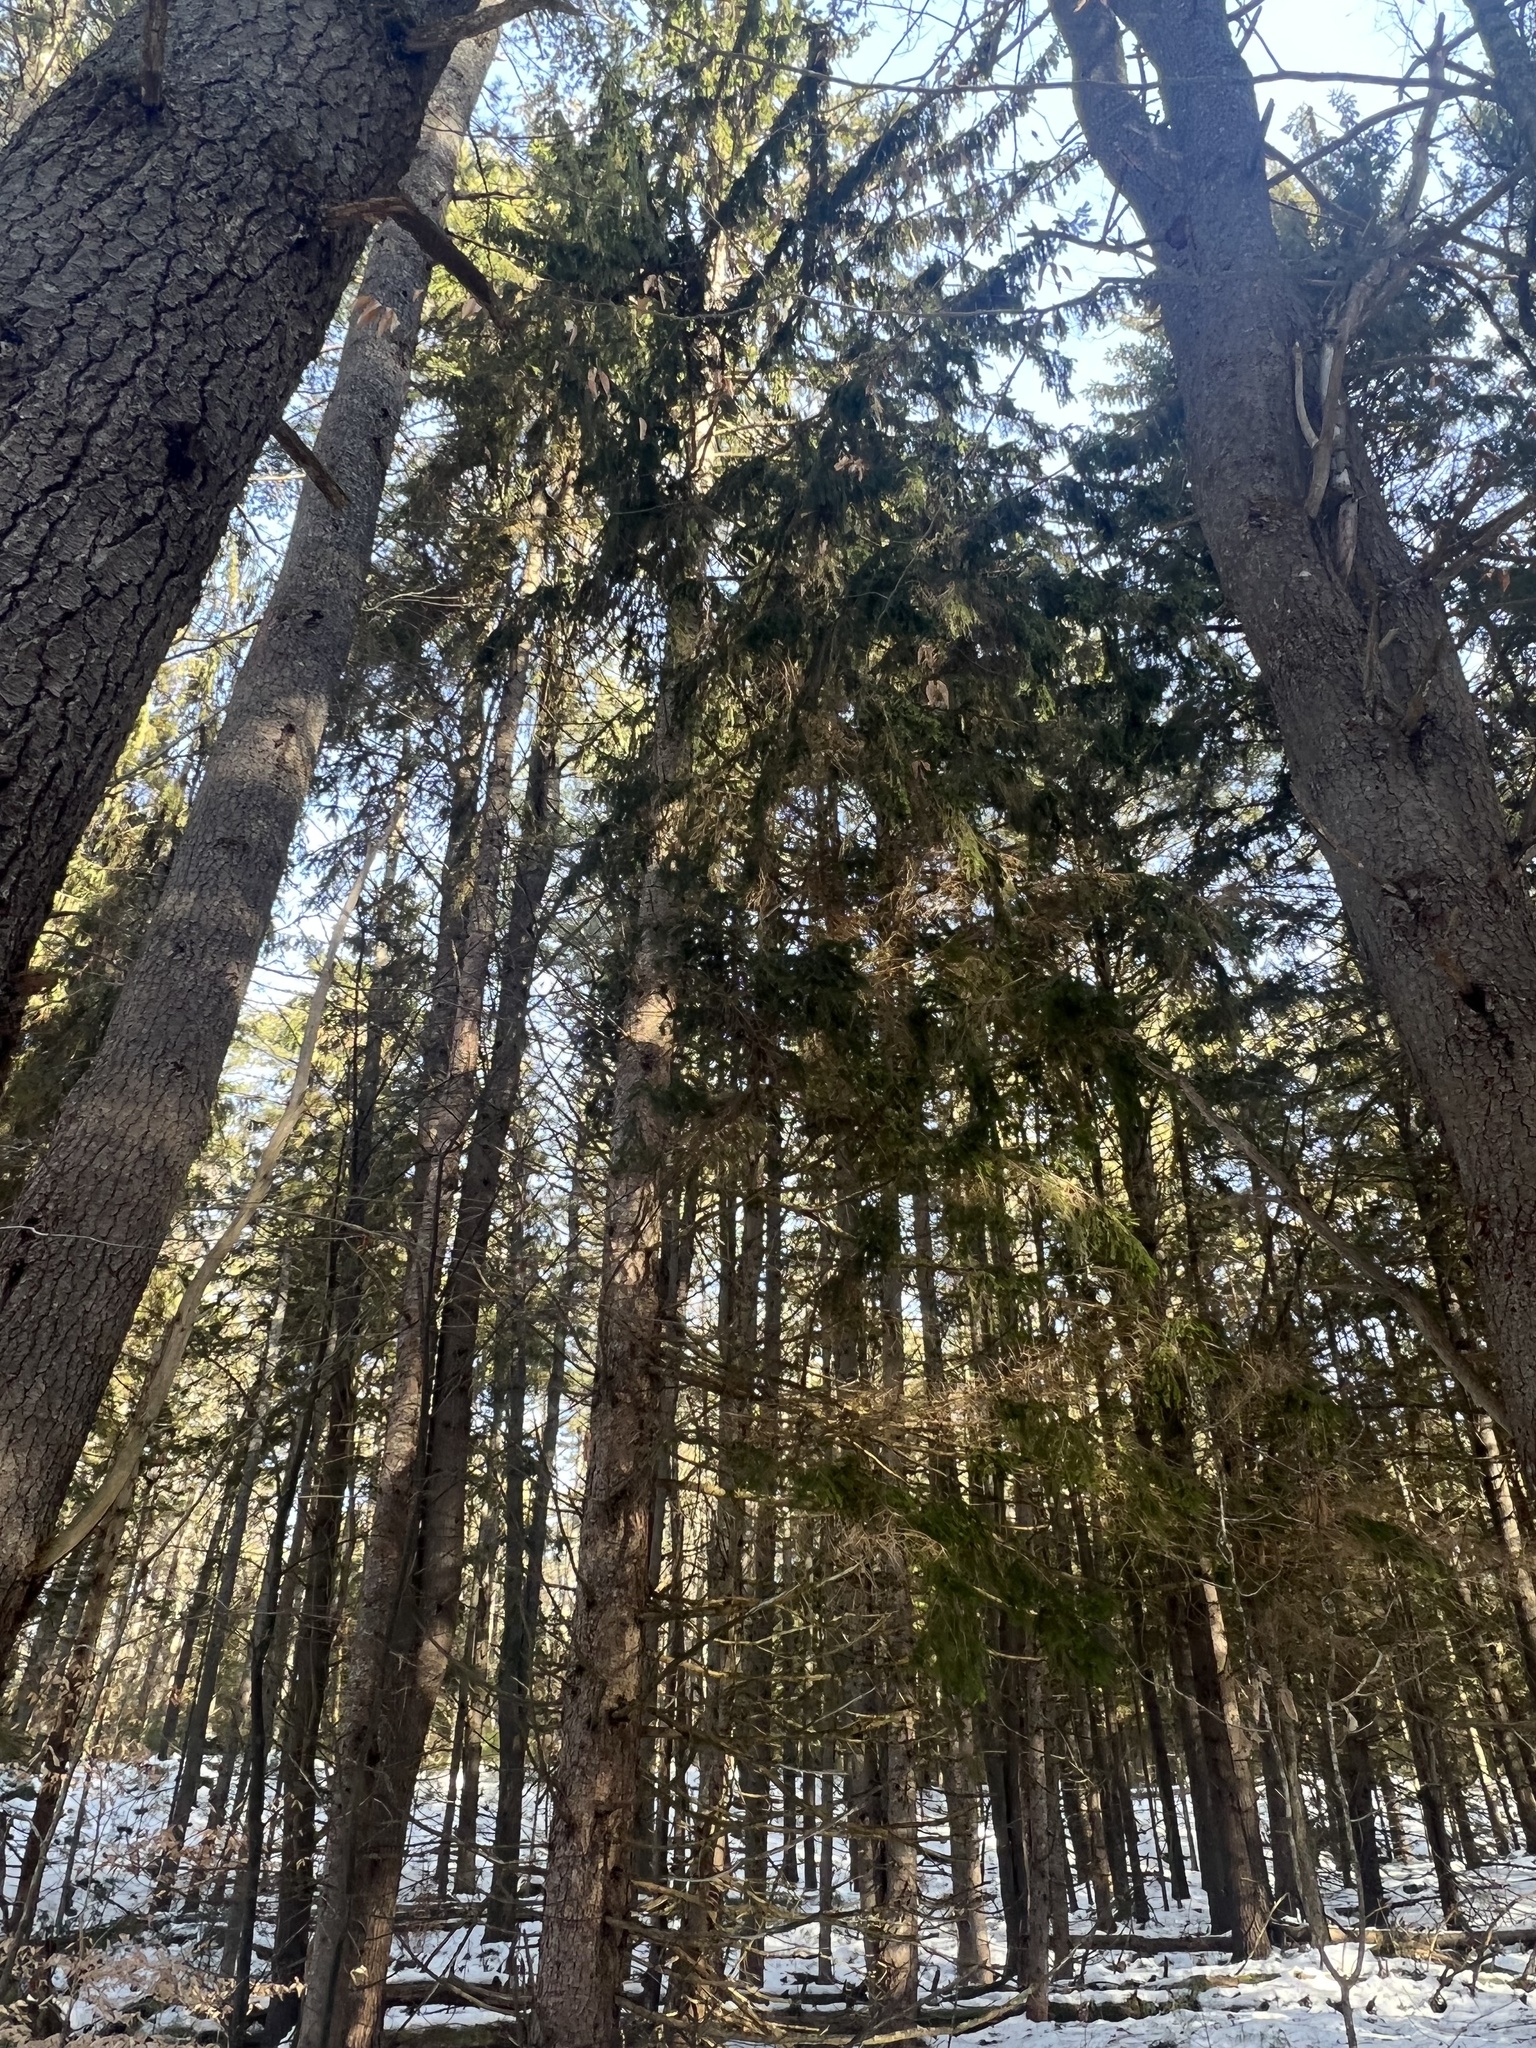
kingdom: Plantae
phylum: Tracheophyta
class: Pinopsida
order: Pinales
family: Pinaceae
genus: Picea
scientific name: Picea abies
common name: Norway spruce
